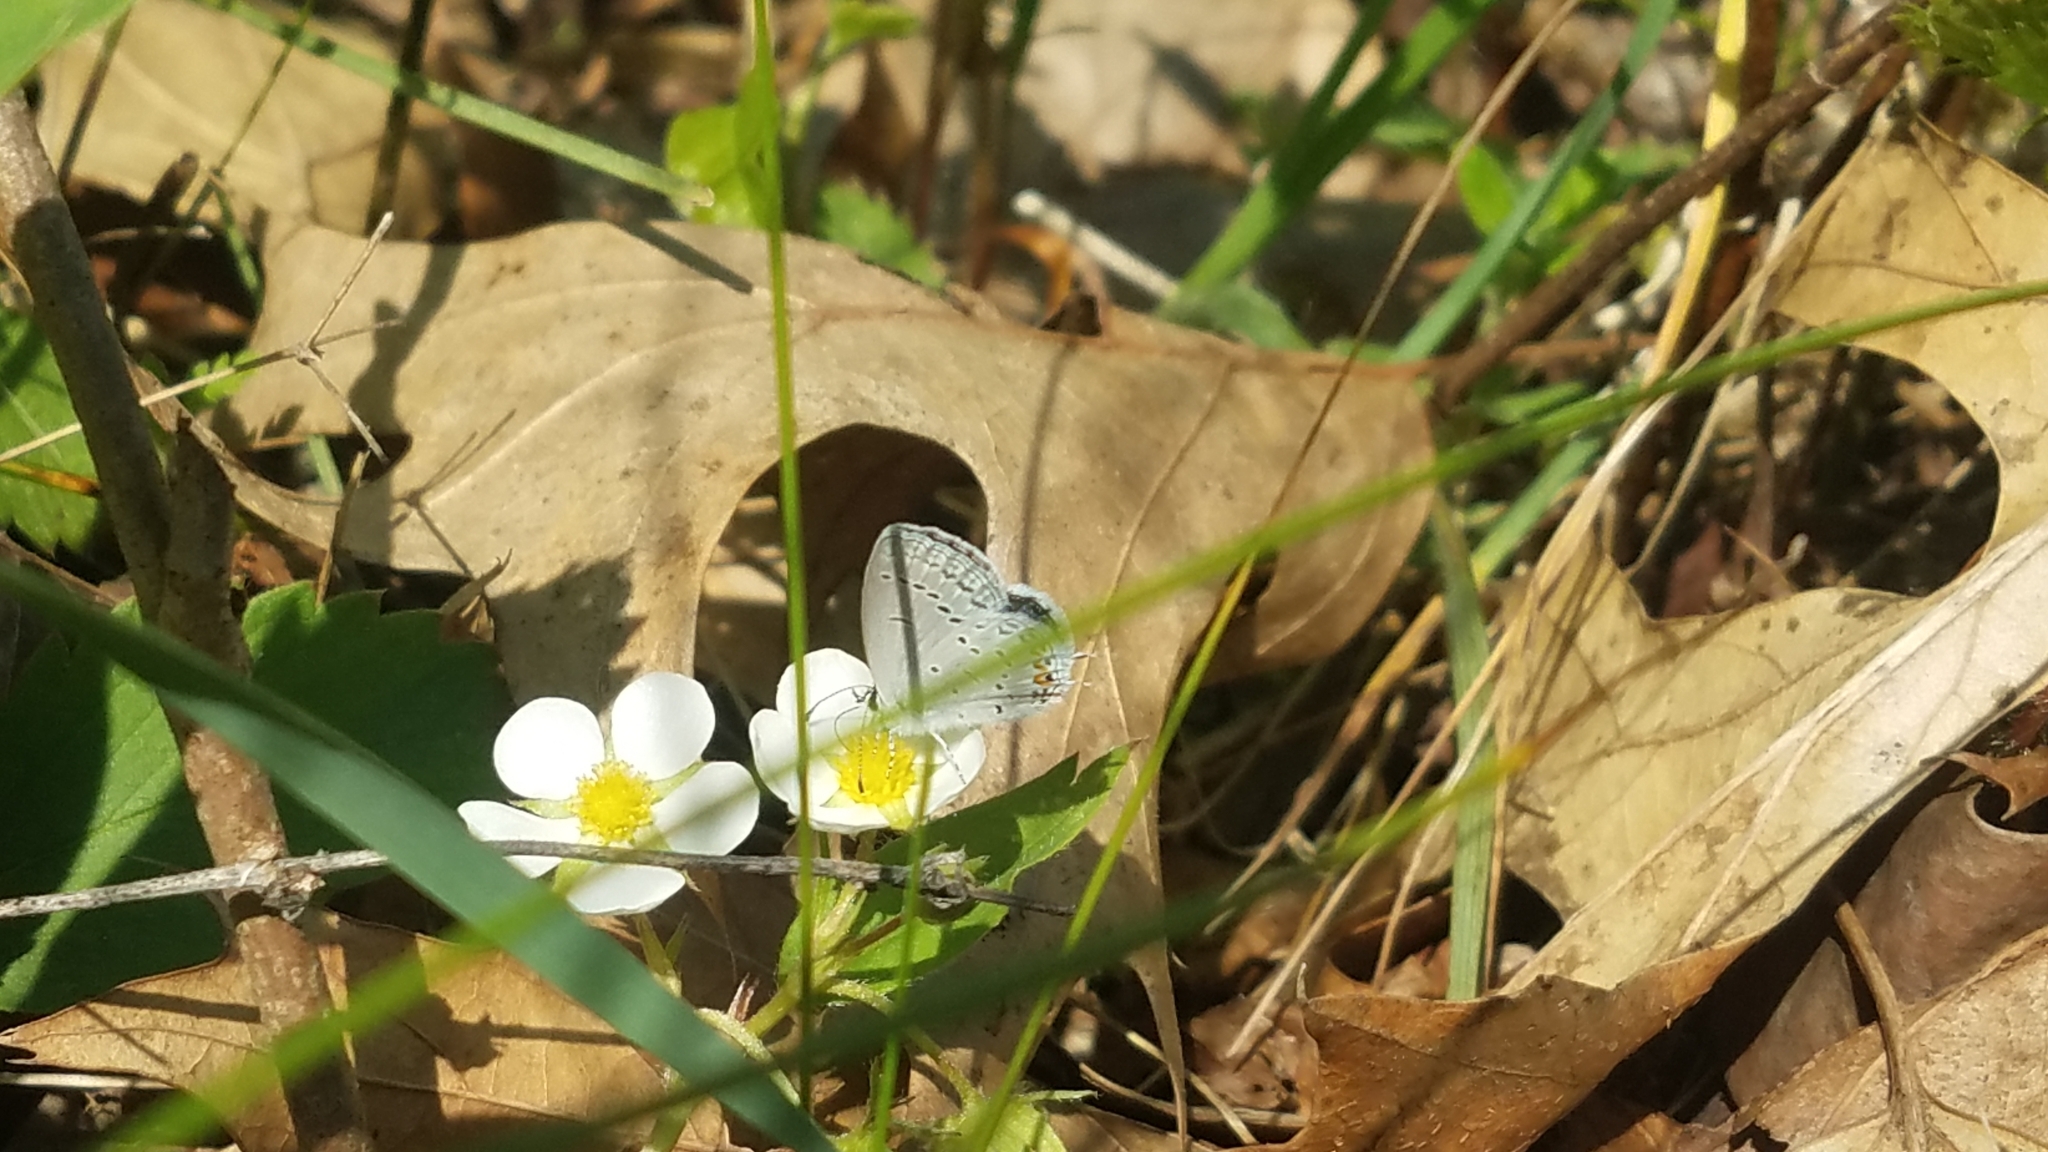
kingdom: Animalia
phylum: Arthropoda
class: Insecta
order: Lepidoptera
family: Lycaenidae
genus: Elkalyce
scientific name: Elkalyce comyntas
